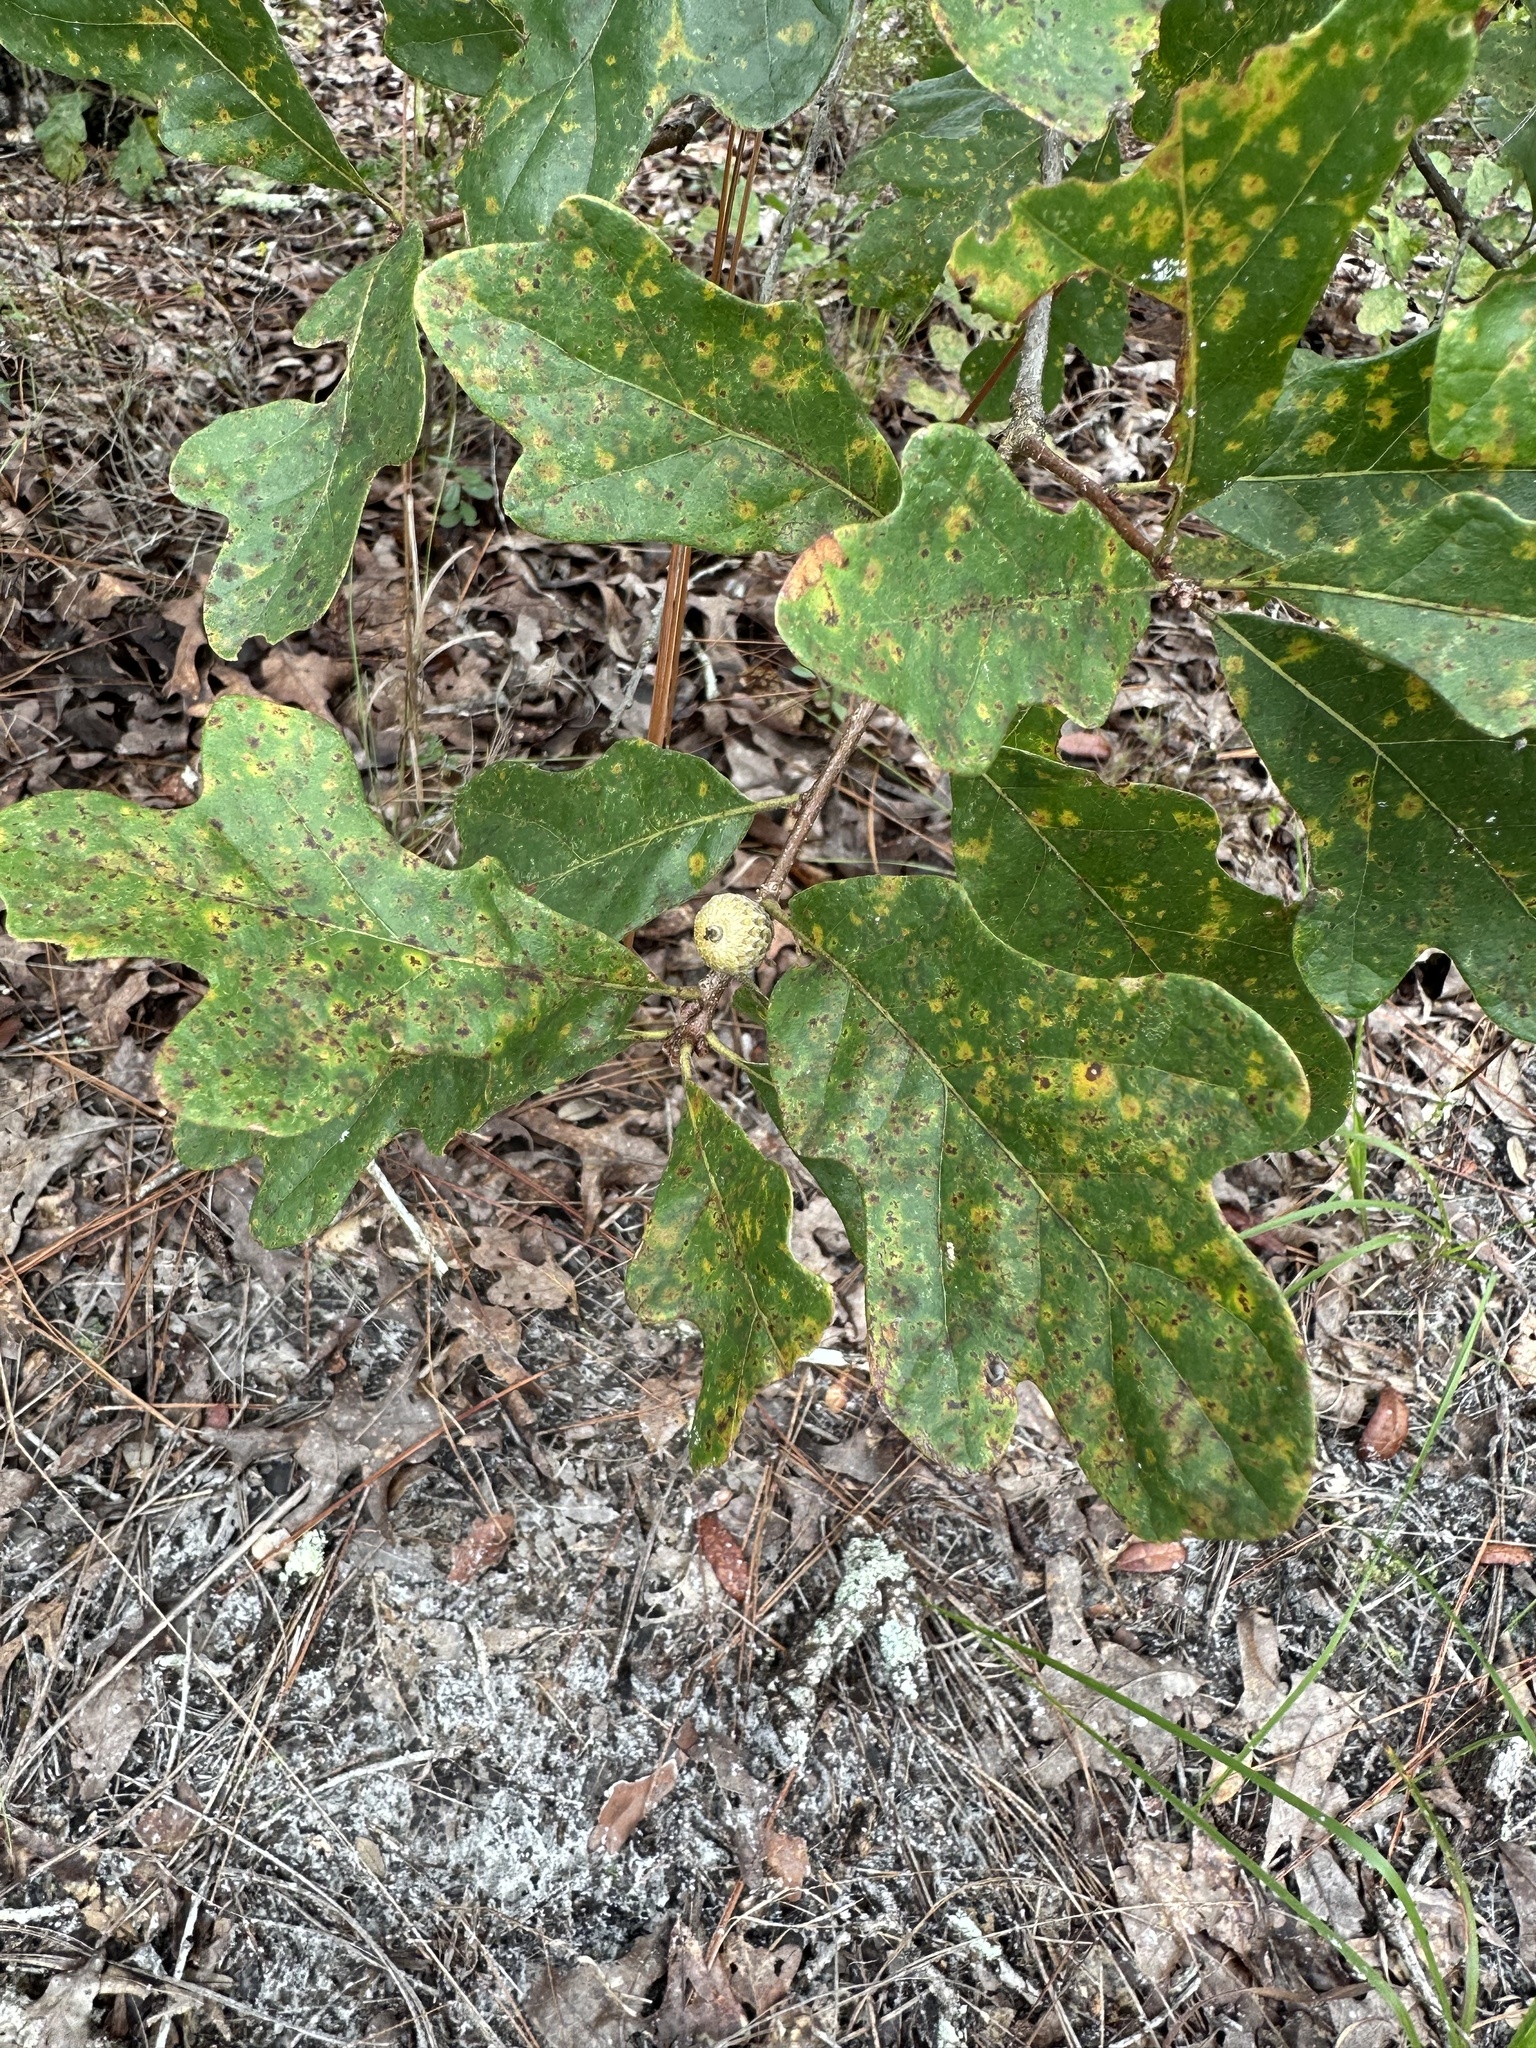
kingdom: Plantae
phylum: Tracheophyta
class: Magnoliopsida
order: Fagales
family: Fagaceae
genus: Quercus
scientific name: Quercus margaretiae
